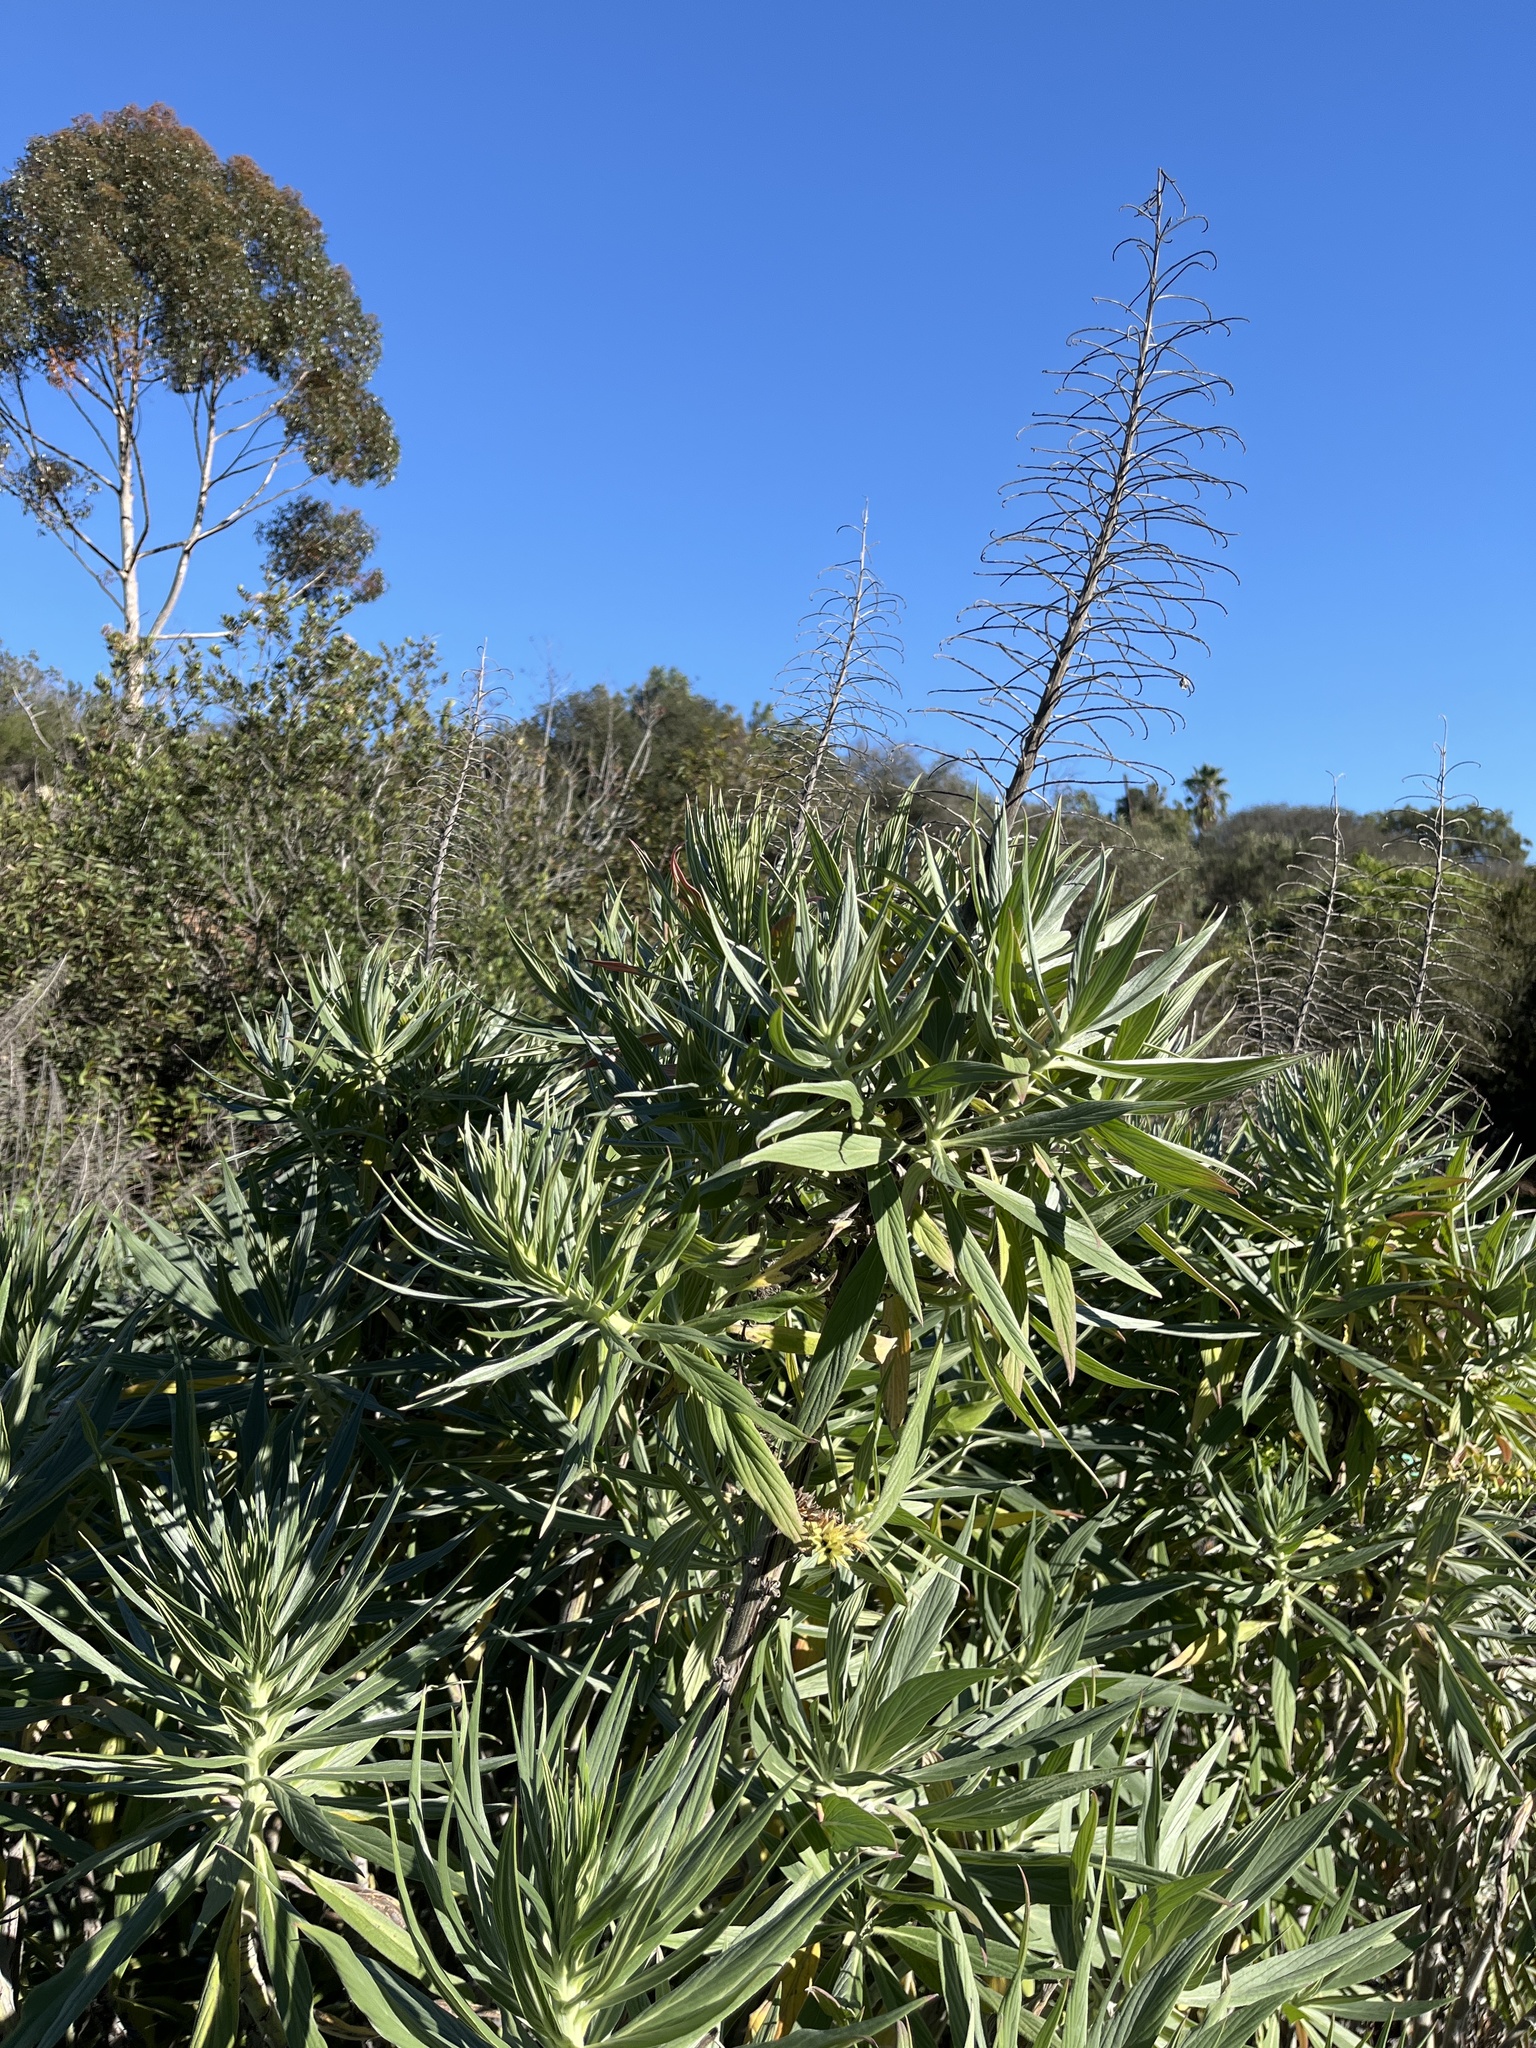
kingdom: Plantae
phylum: Tracheophyta
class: Magnoliopsida
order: Boraginales
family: Boraginaceae
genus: Echium
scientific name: Echium candicans
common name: Pride of madeira
